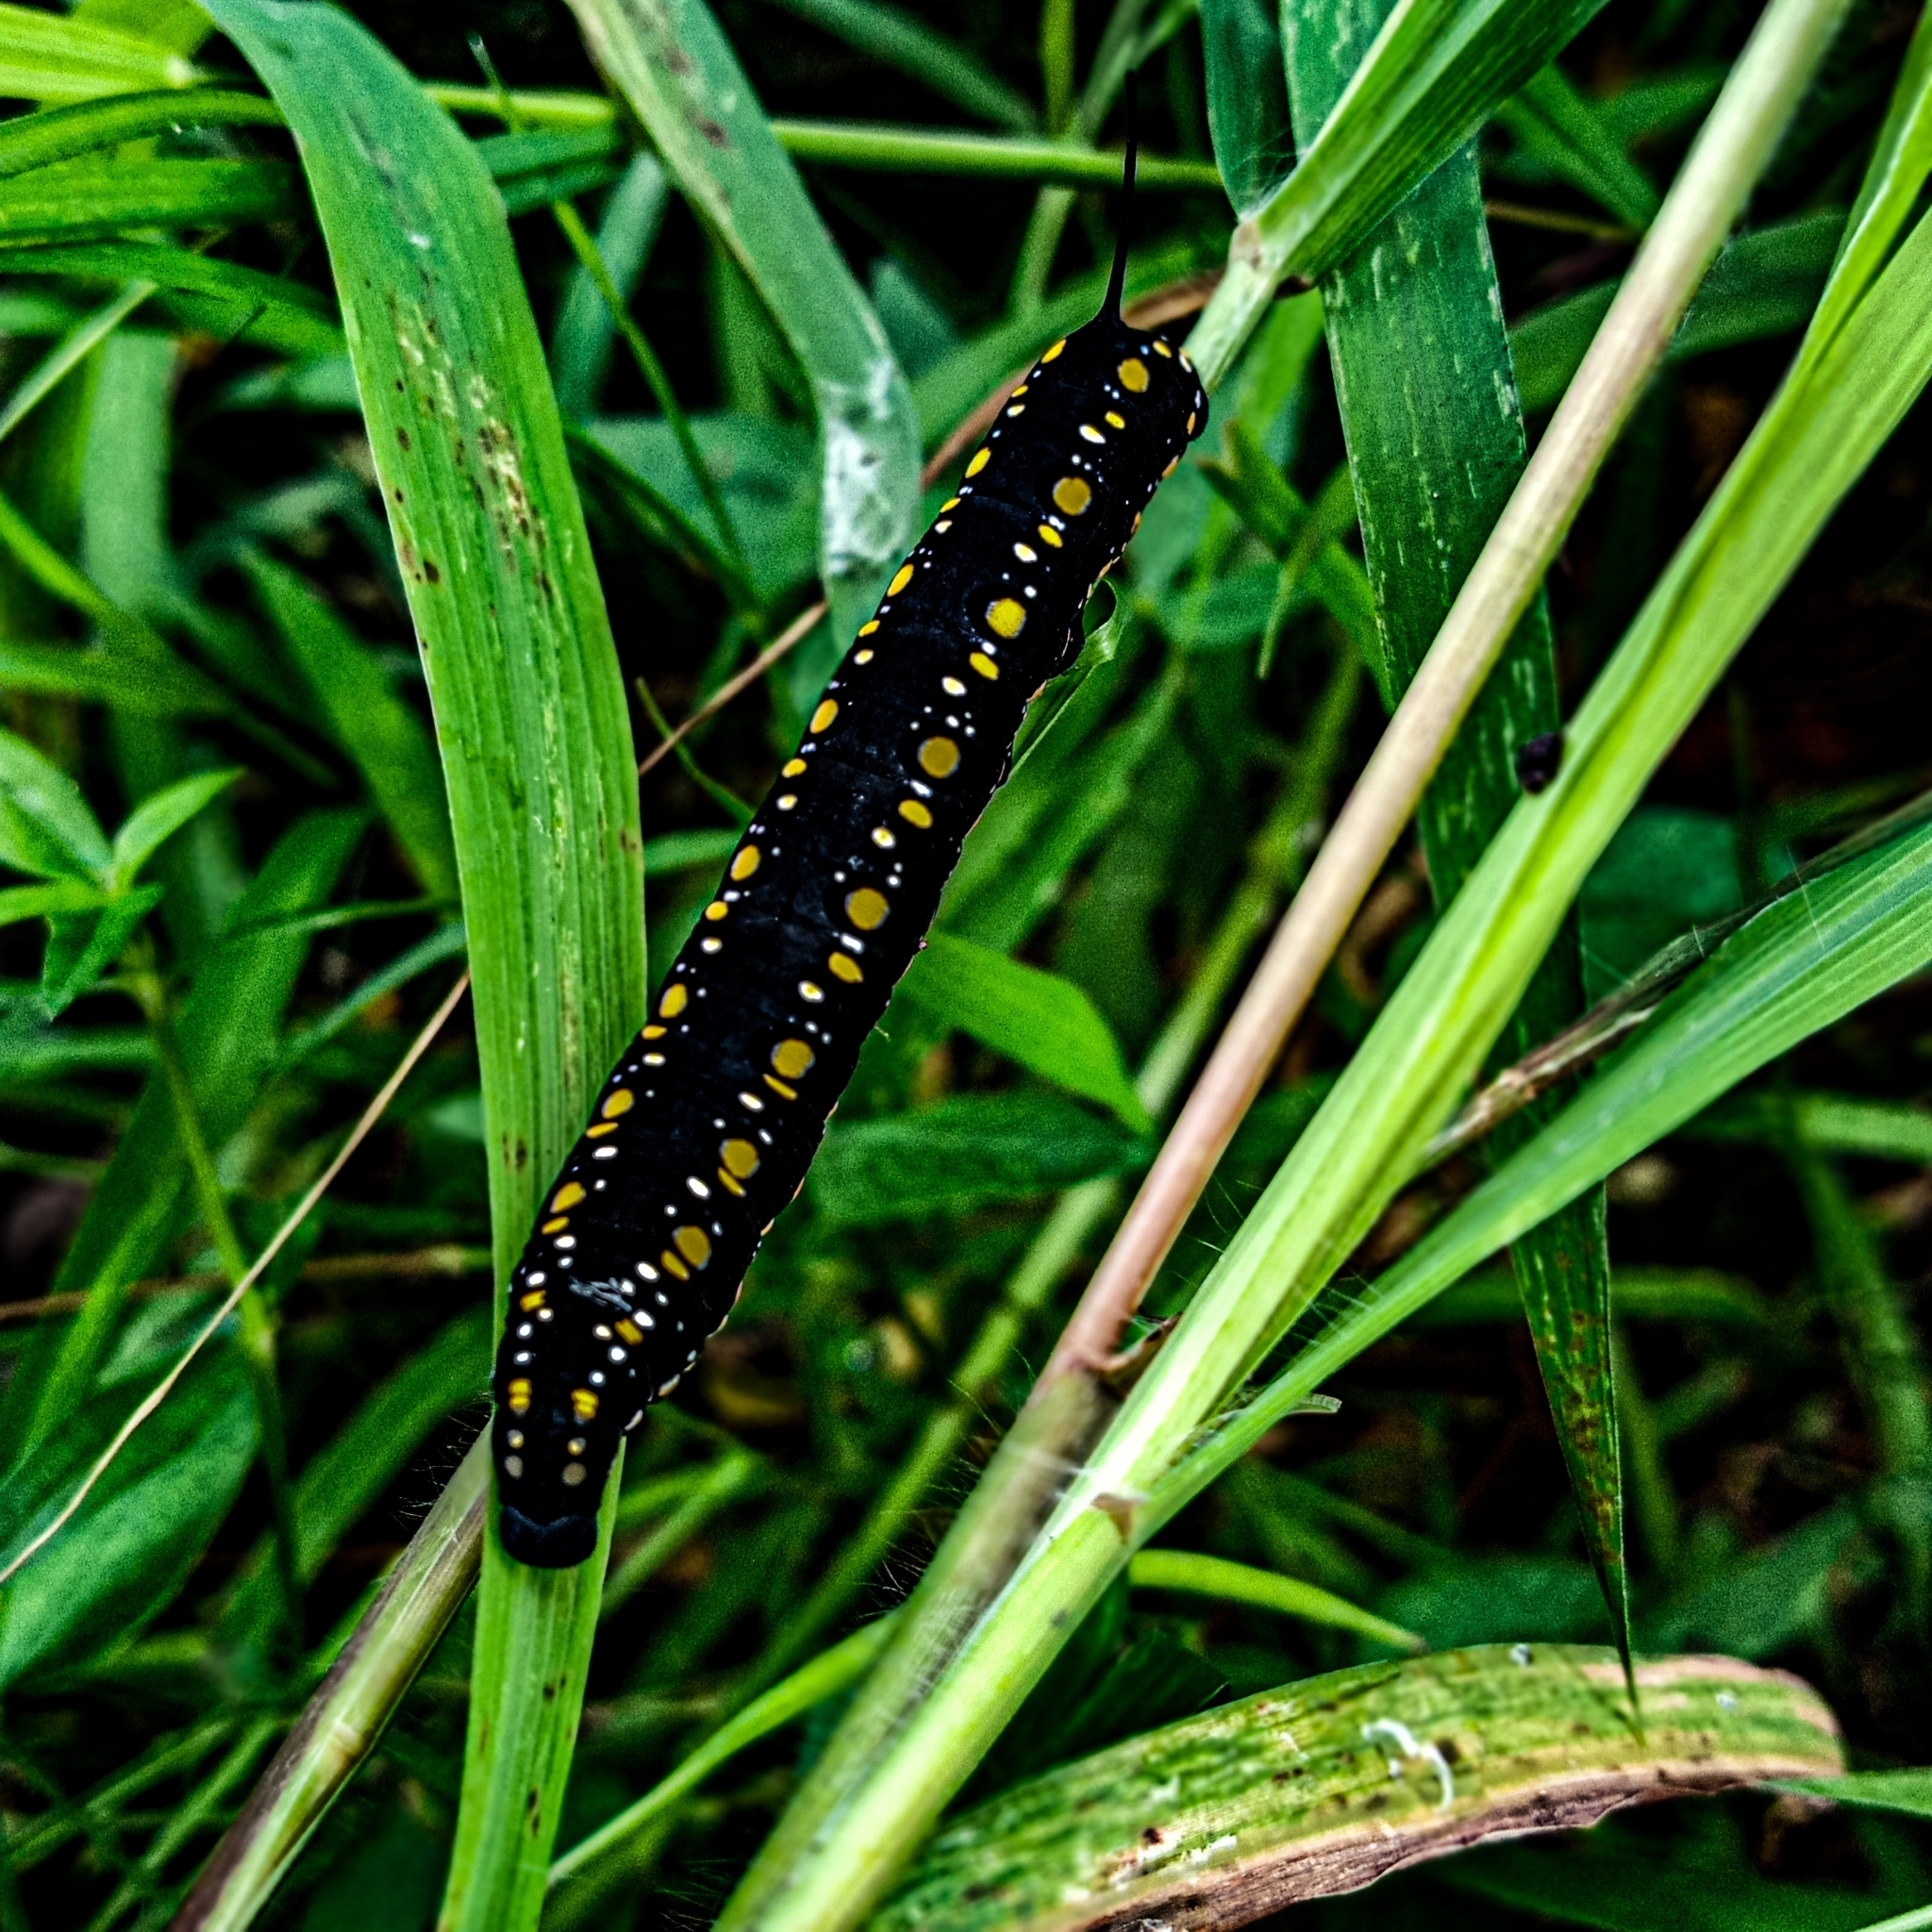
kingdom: Animalia
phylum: Arthropoda
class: Insecta
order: Lepidoptera
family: Sphingidae
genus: Theretra
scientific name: Theretra oldenlandiae
